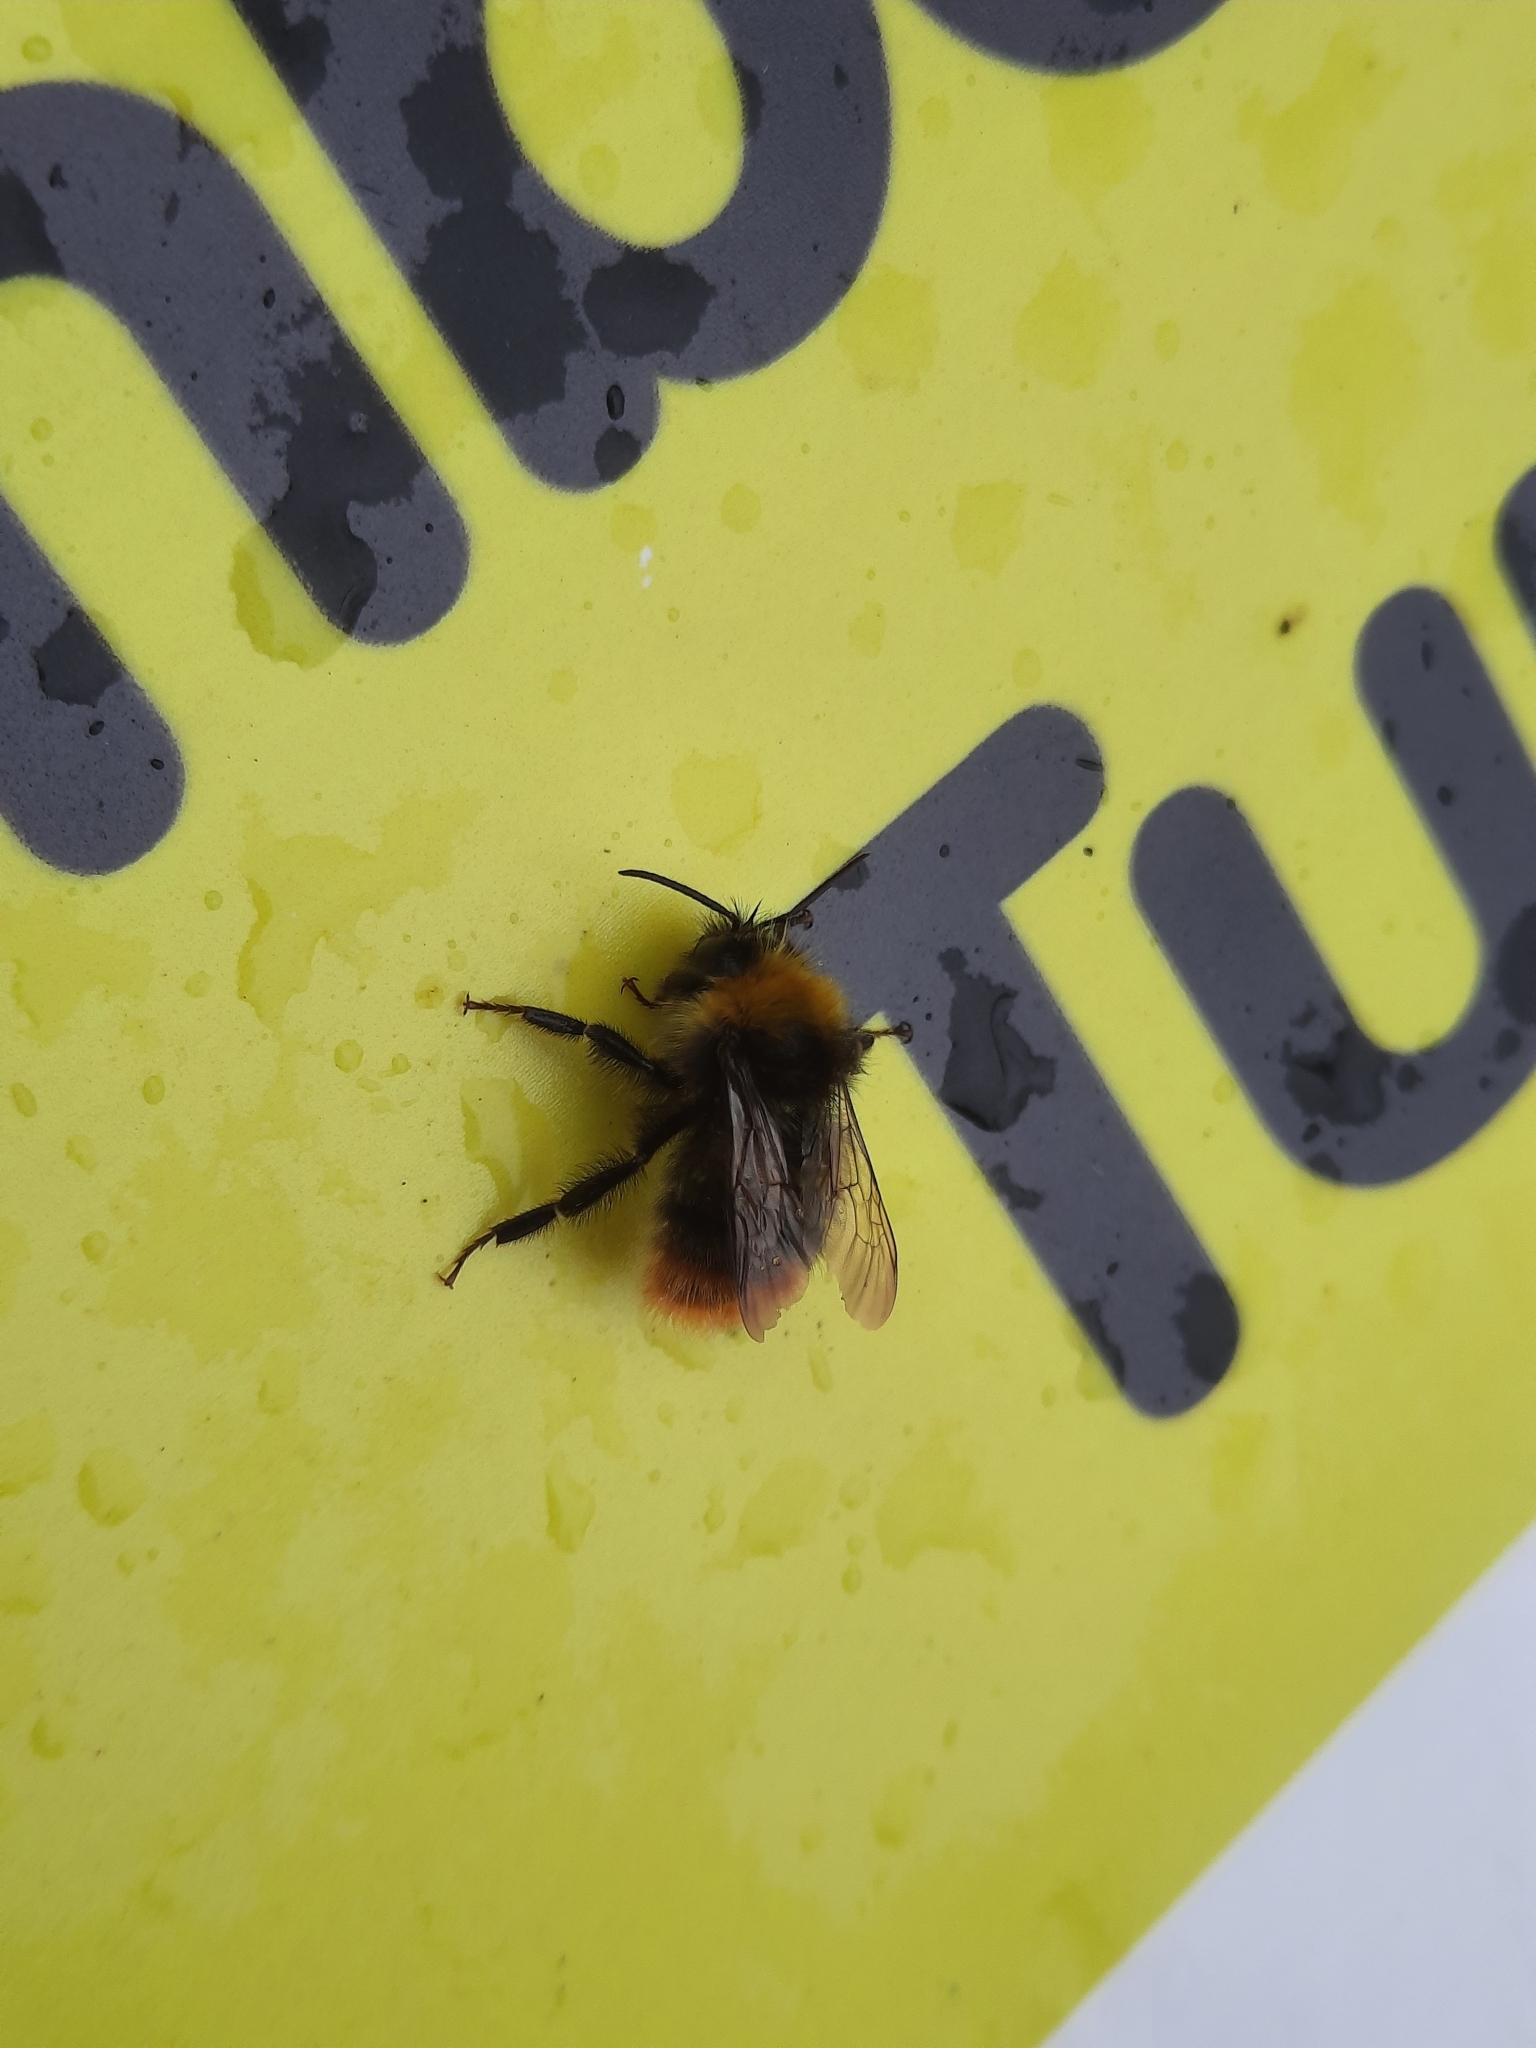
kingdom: Animalia
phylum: Arthropoda
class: Insecta
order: Hymenoptera
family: Apidae
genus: Bombus
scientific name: Bombus pratorum
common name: Early humble-bee
